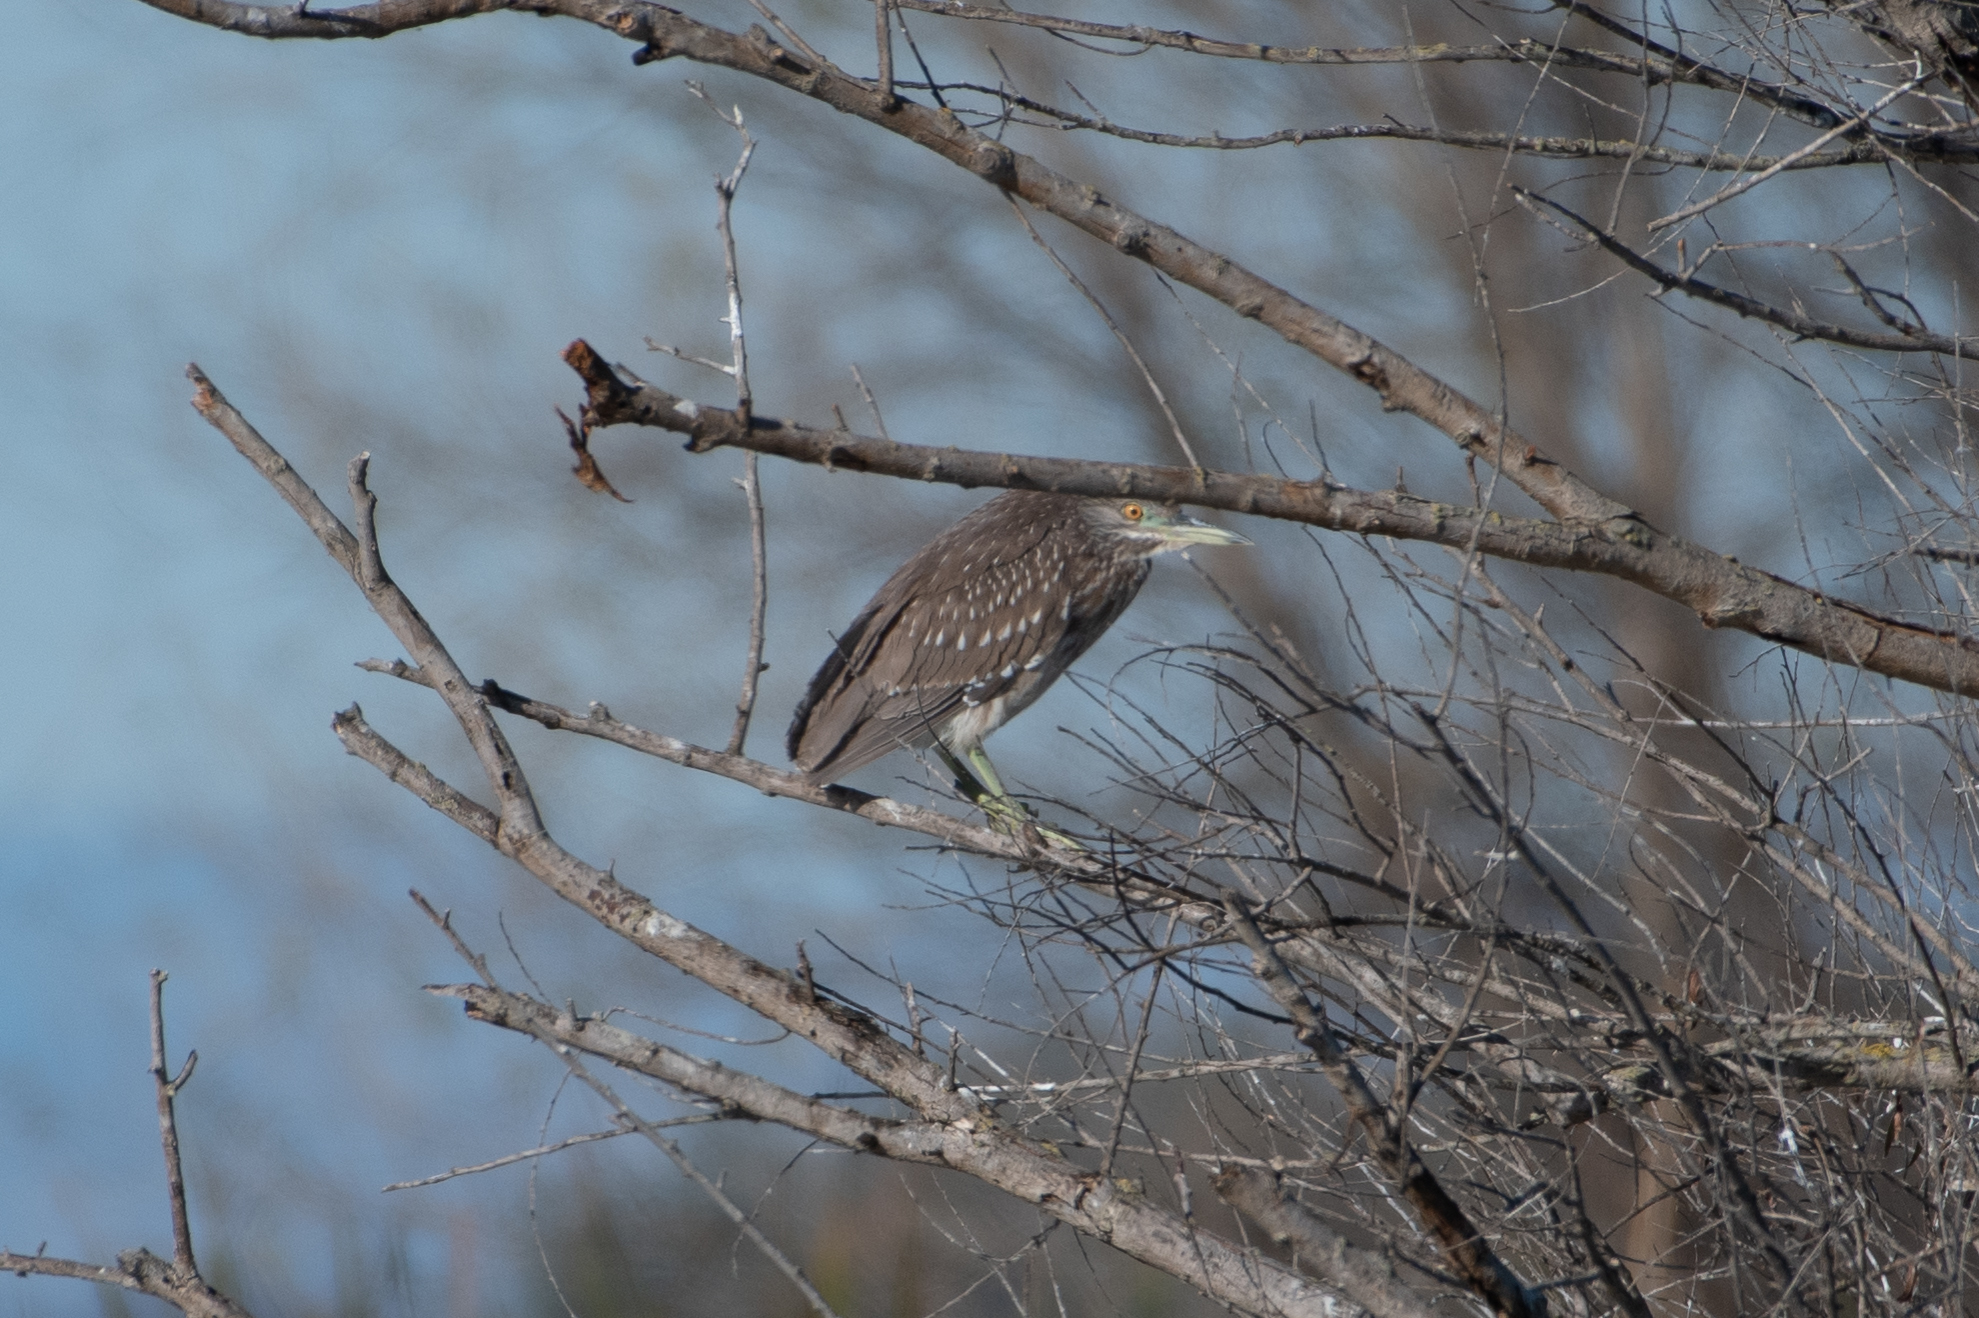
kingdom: Animalia
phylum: Chordata
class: Aves
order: Pelecaniformes
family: Ardeidae
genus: Nycticorax
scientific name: Nycticorax nycticorax
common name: Black-crowned night heron
